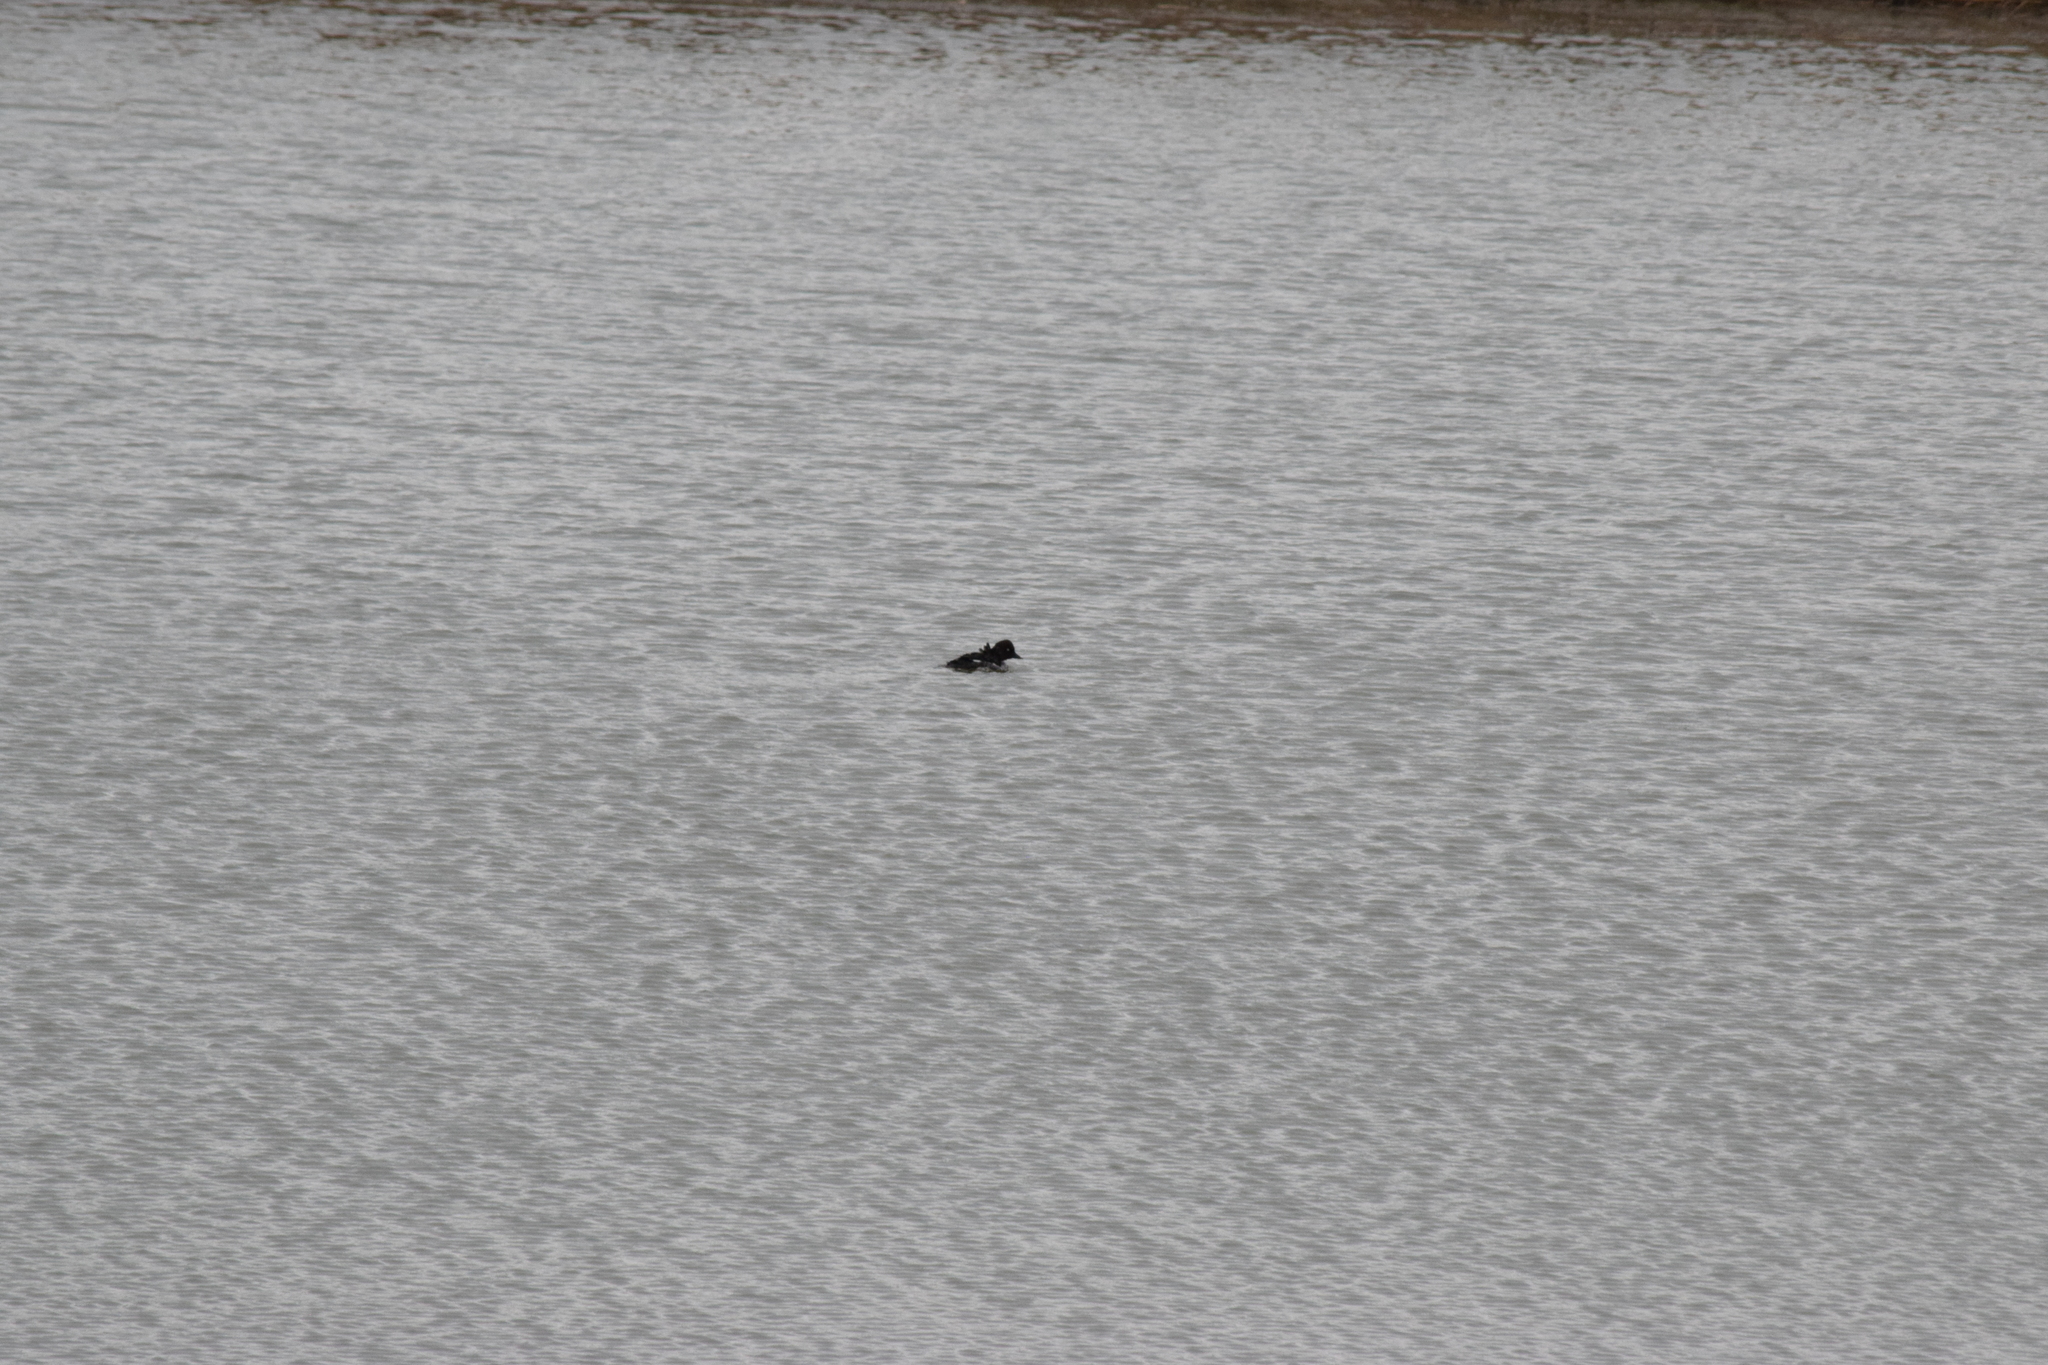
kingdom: Animalia
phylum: Chordata
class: Aves
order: Anseriformes
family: Anatidae
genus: Bucephala
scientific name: Bucephala clangula
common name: Common goldeneye
